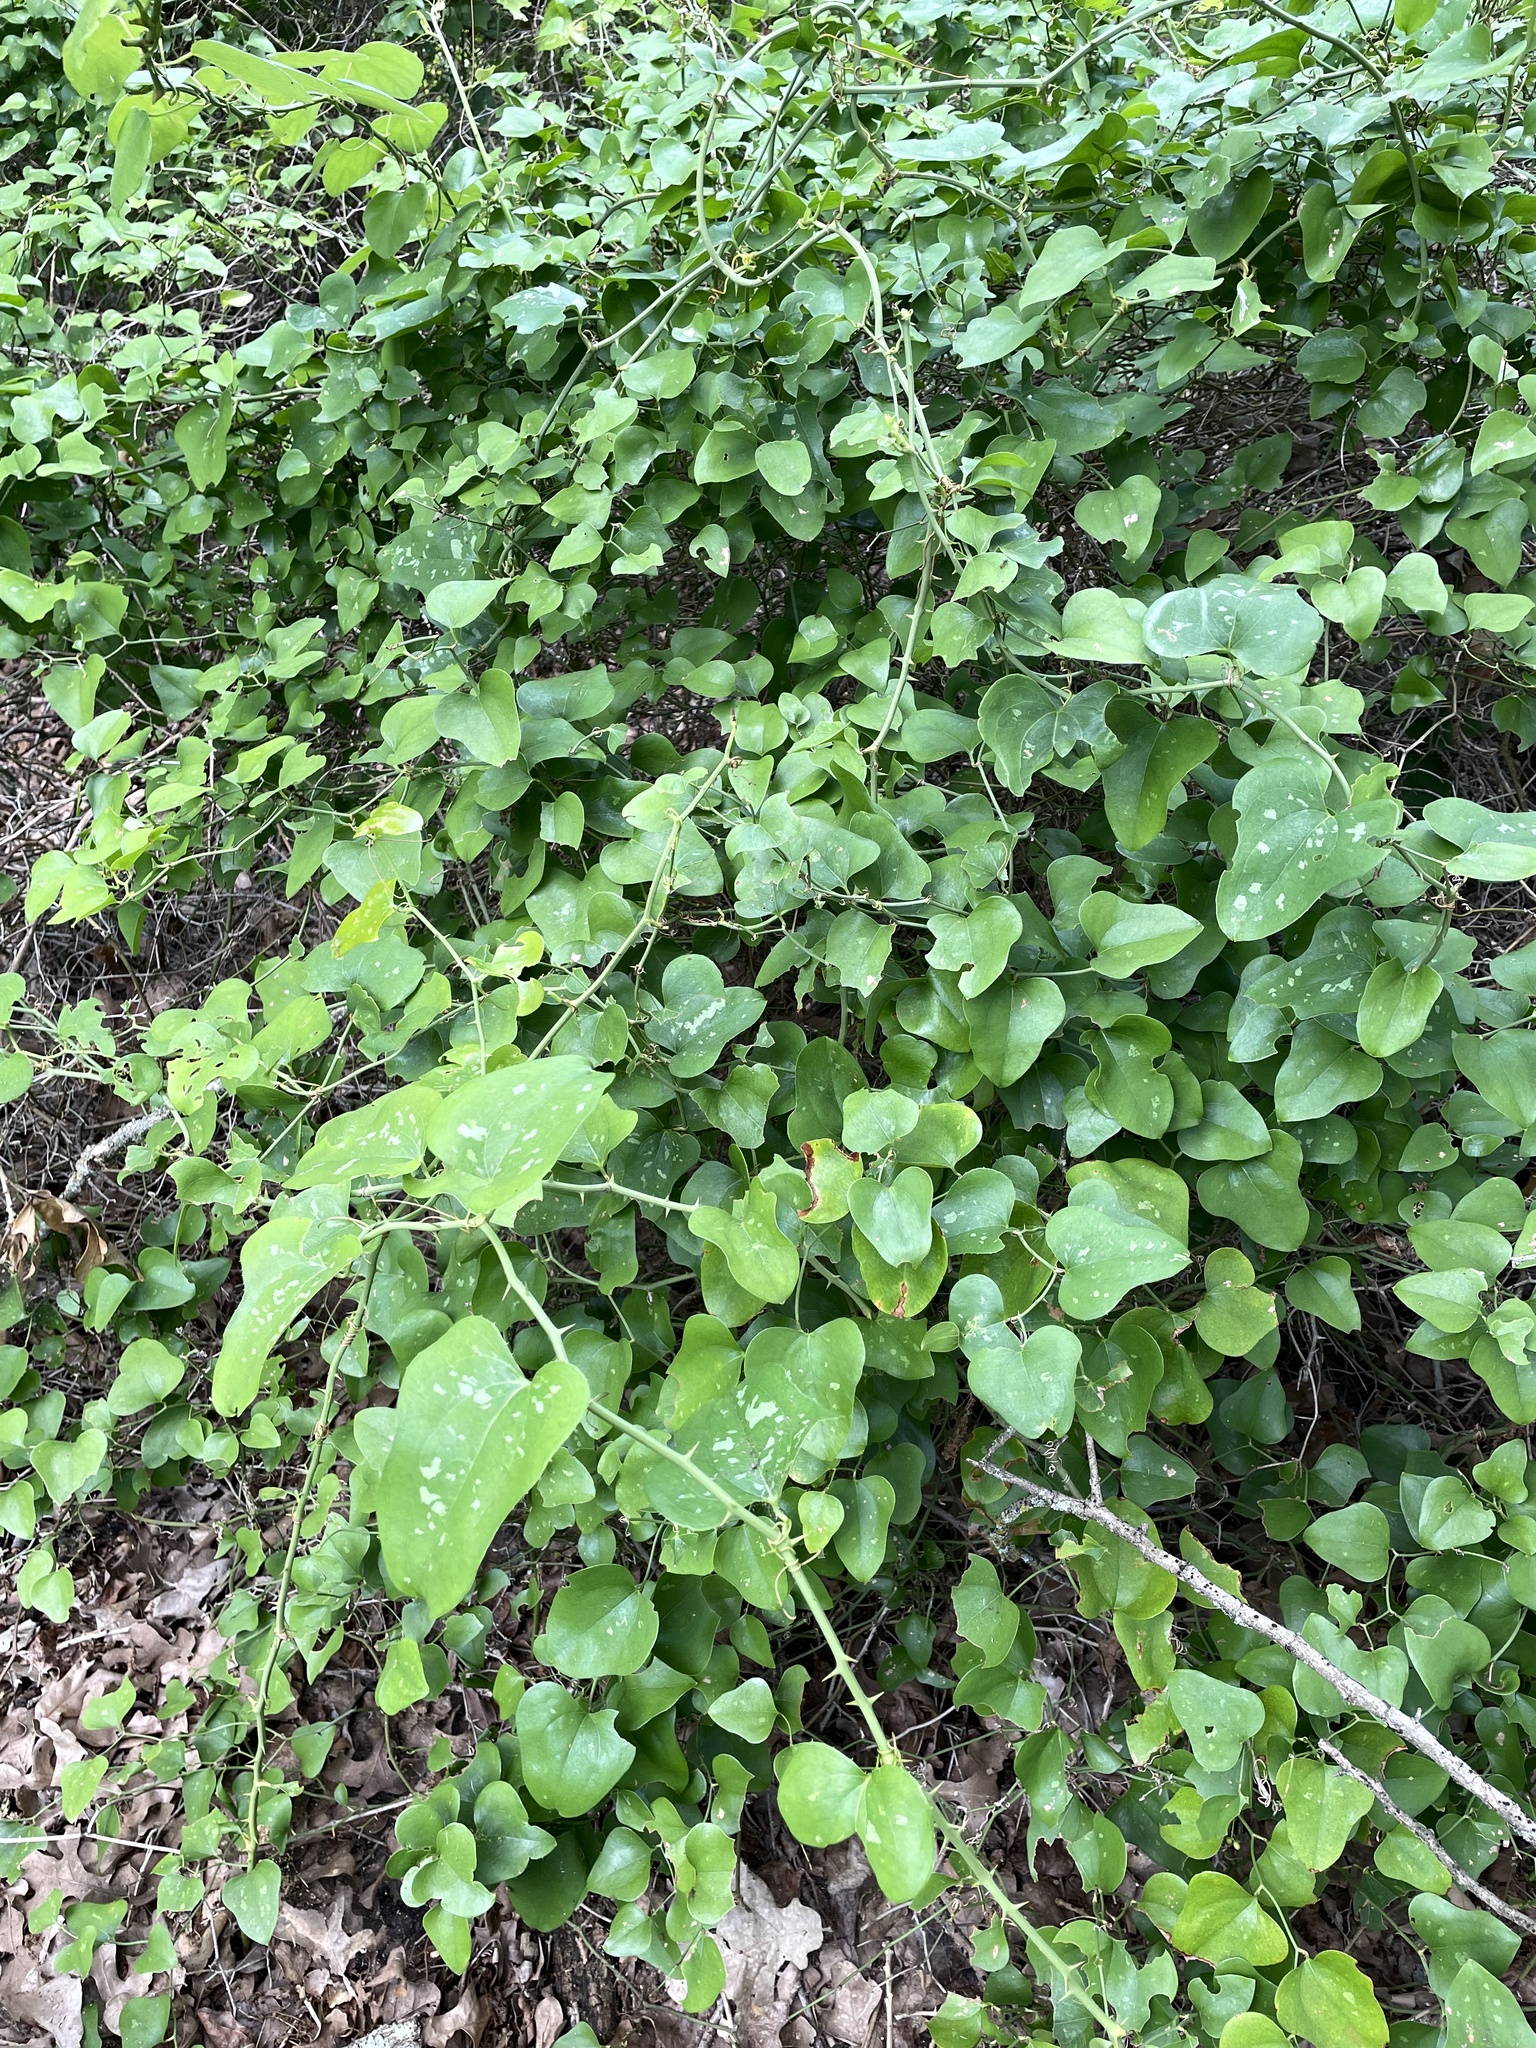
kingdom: Plantae
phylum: Tracheophyta
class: Liliopsida
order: Liliales
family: Smilacaceae
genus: Smilax
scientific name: Smilax bona-nox
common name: Catbrier
